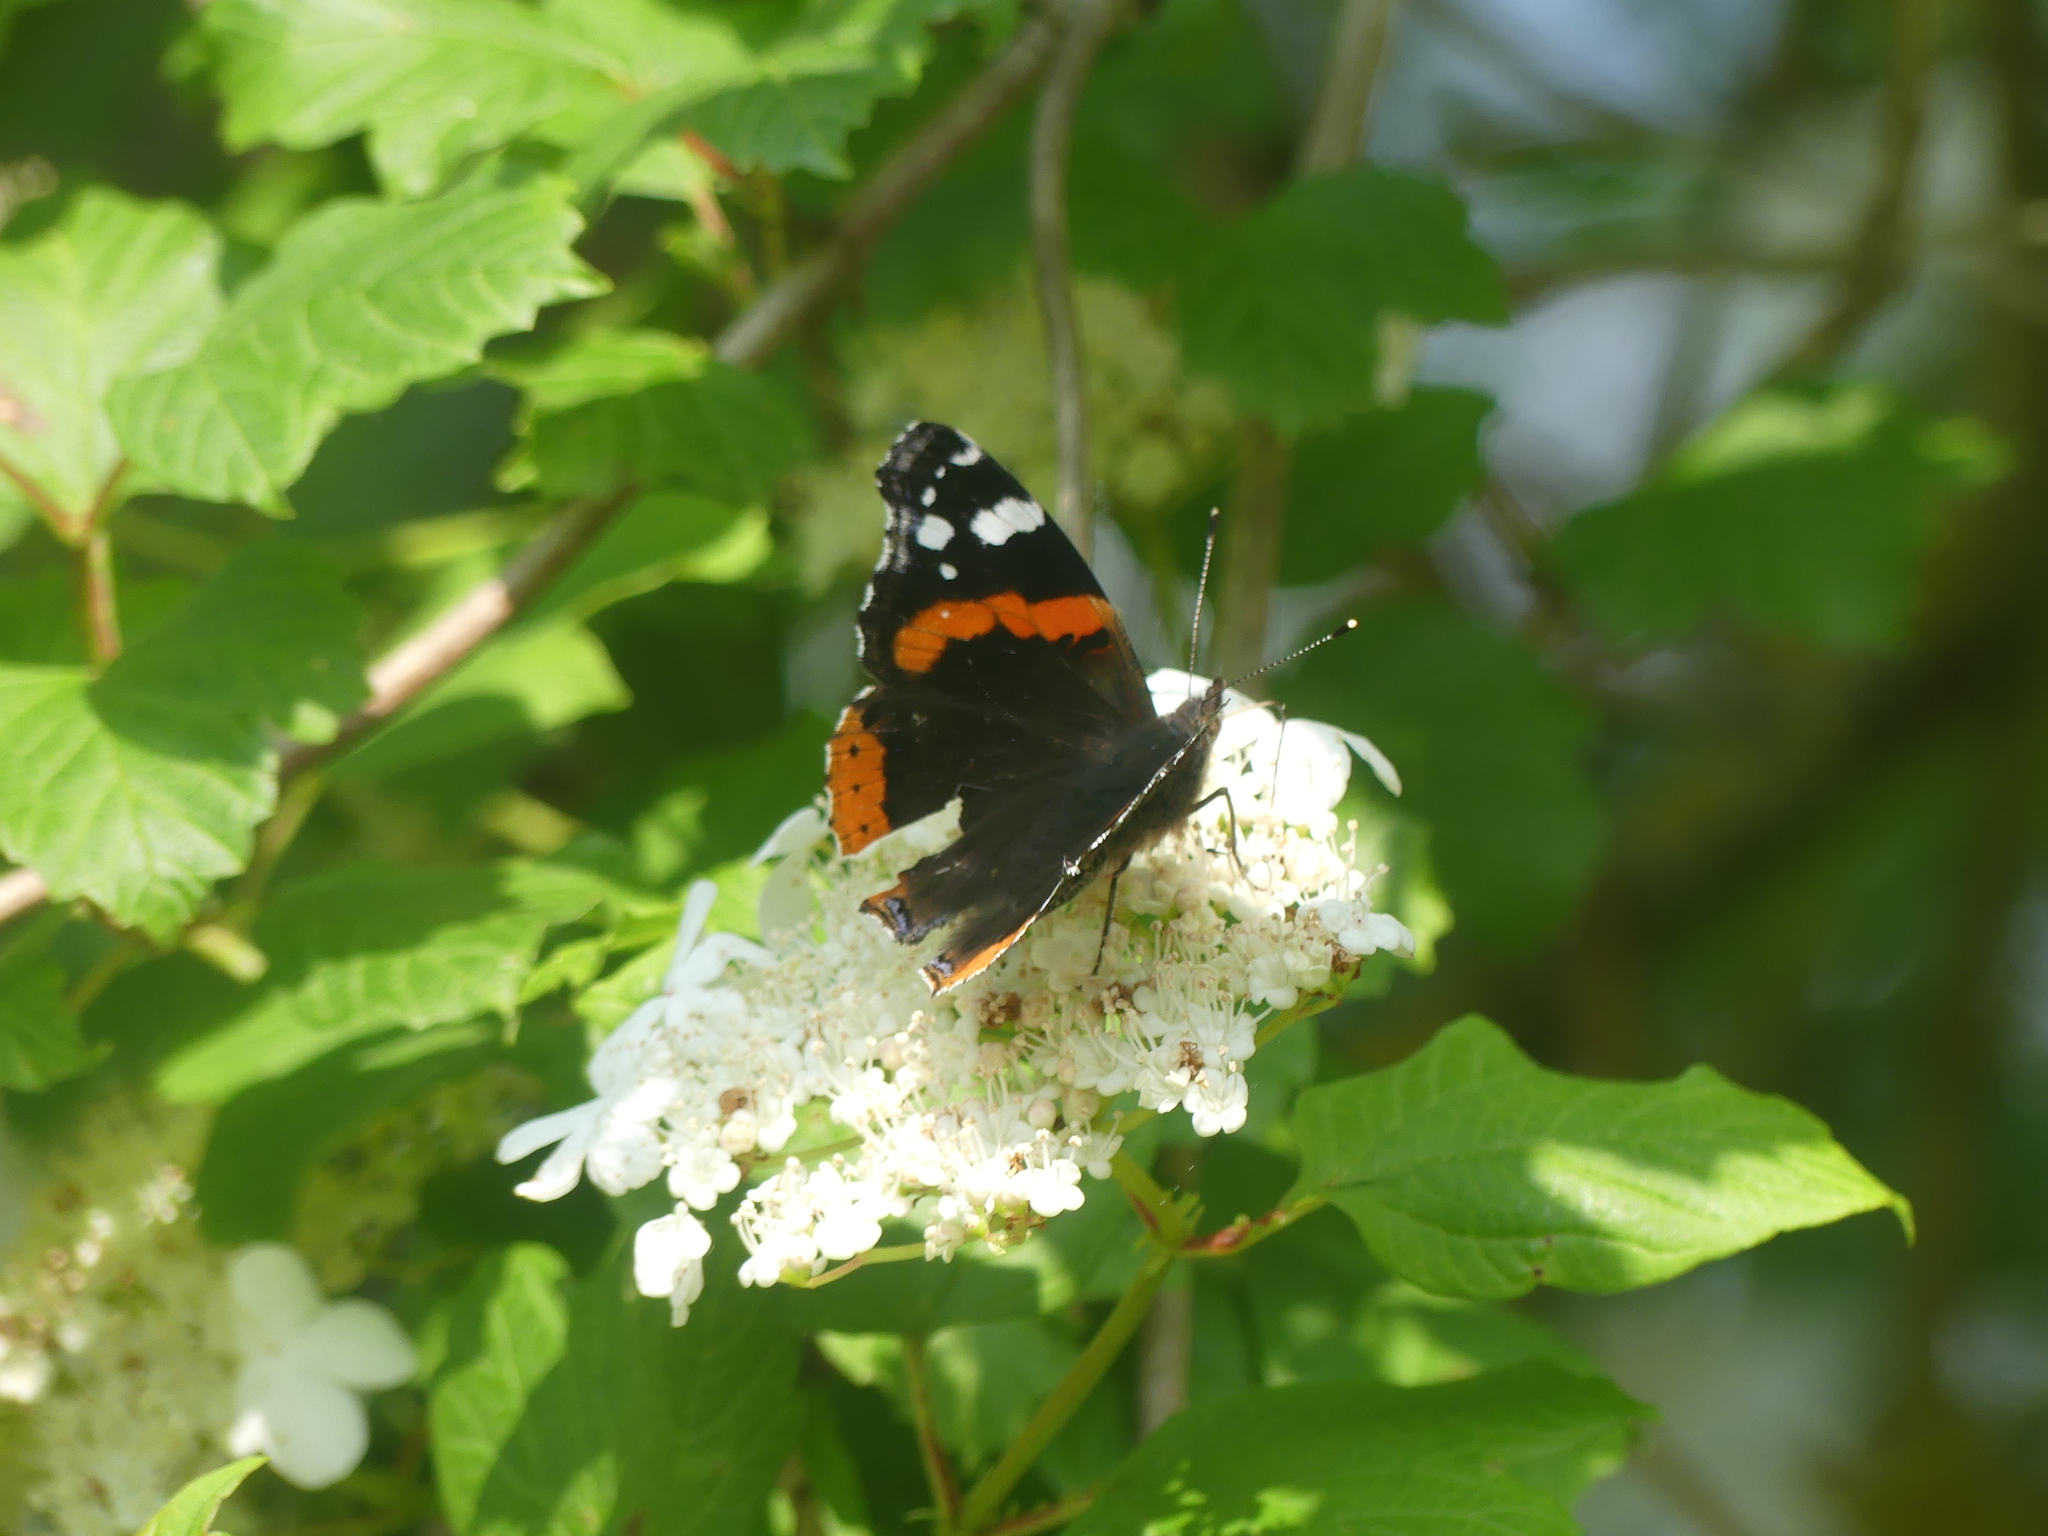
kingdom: Animalia
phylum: Arthropoda
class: Insecta
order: Lepidoptera
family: Nymphalidae
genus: Vanessa
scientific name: Vanessa atalanta
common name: Red admiral
